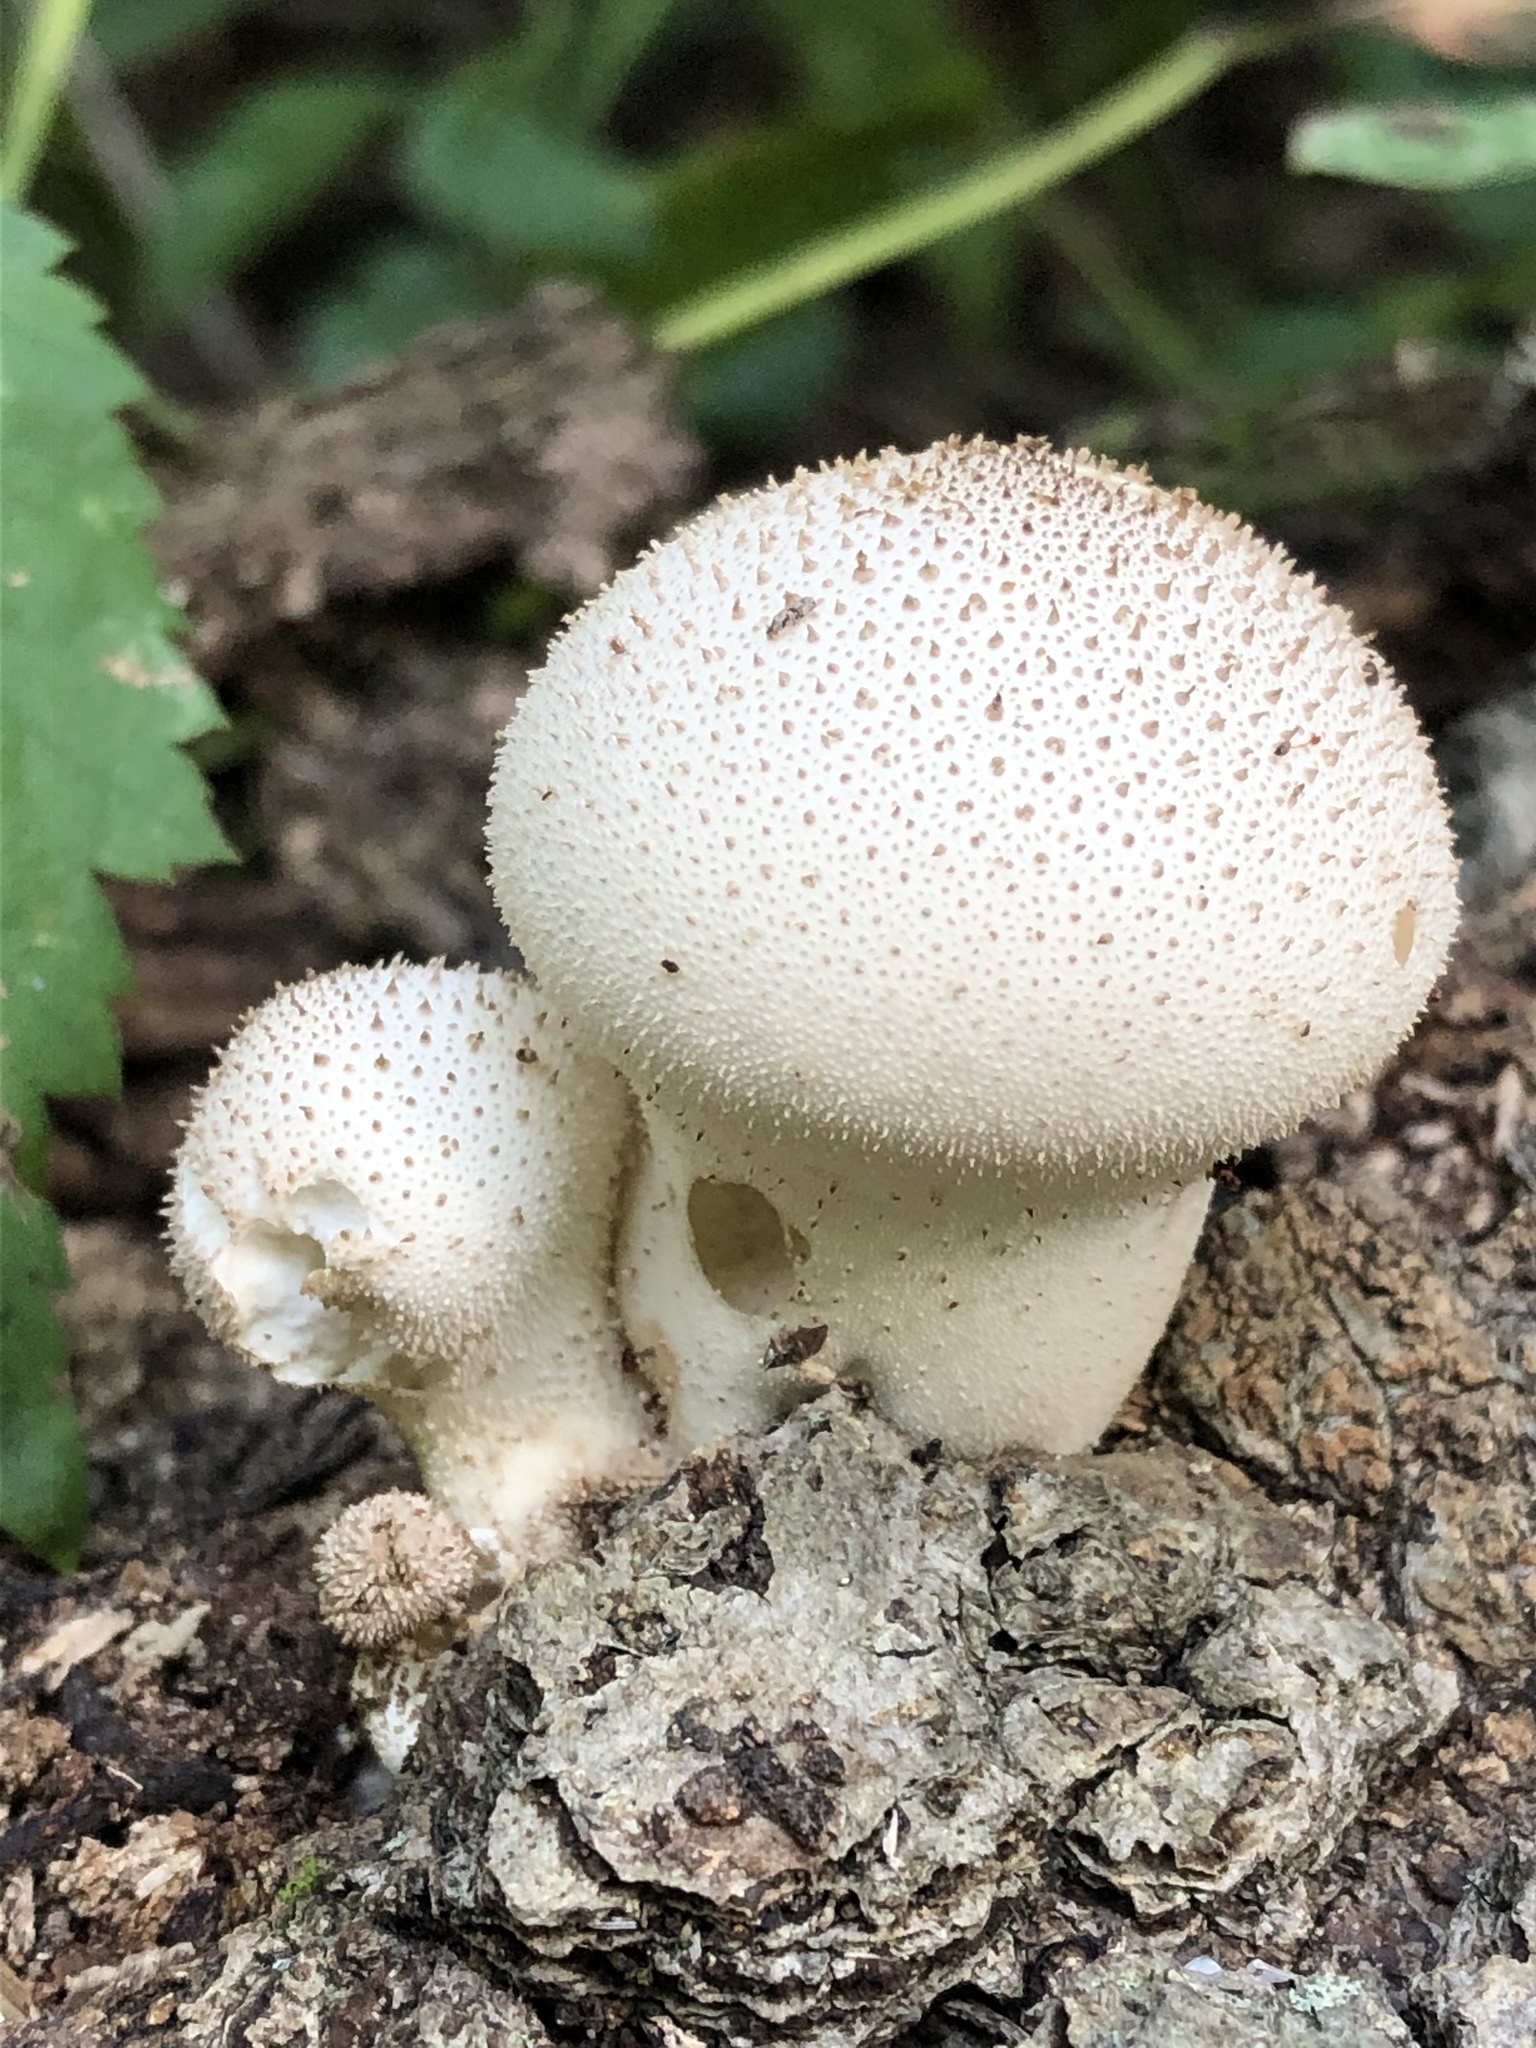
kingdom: Fungi
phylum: Basidiomycota
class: Agaricomycetes
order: Agaricales
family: Lycoperdaceae
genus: Lycoperdon
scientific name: Lycoperdon perlatum
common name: Common puffball
